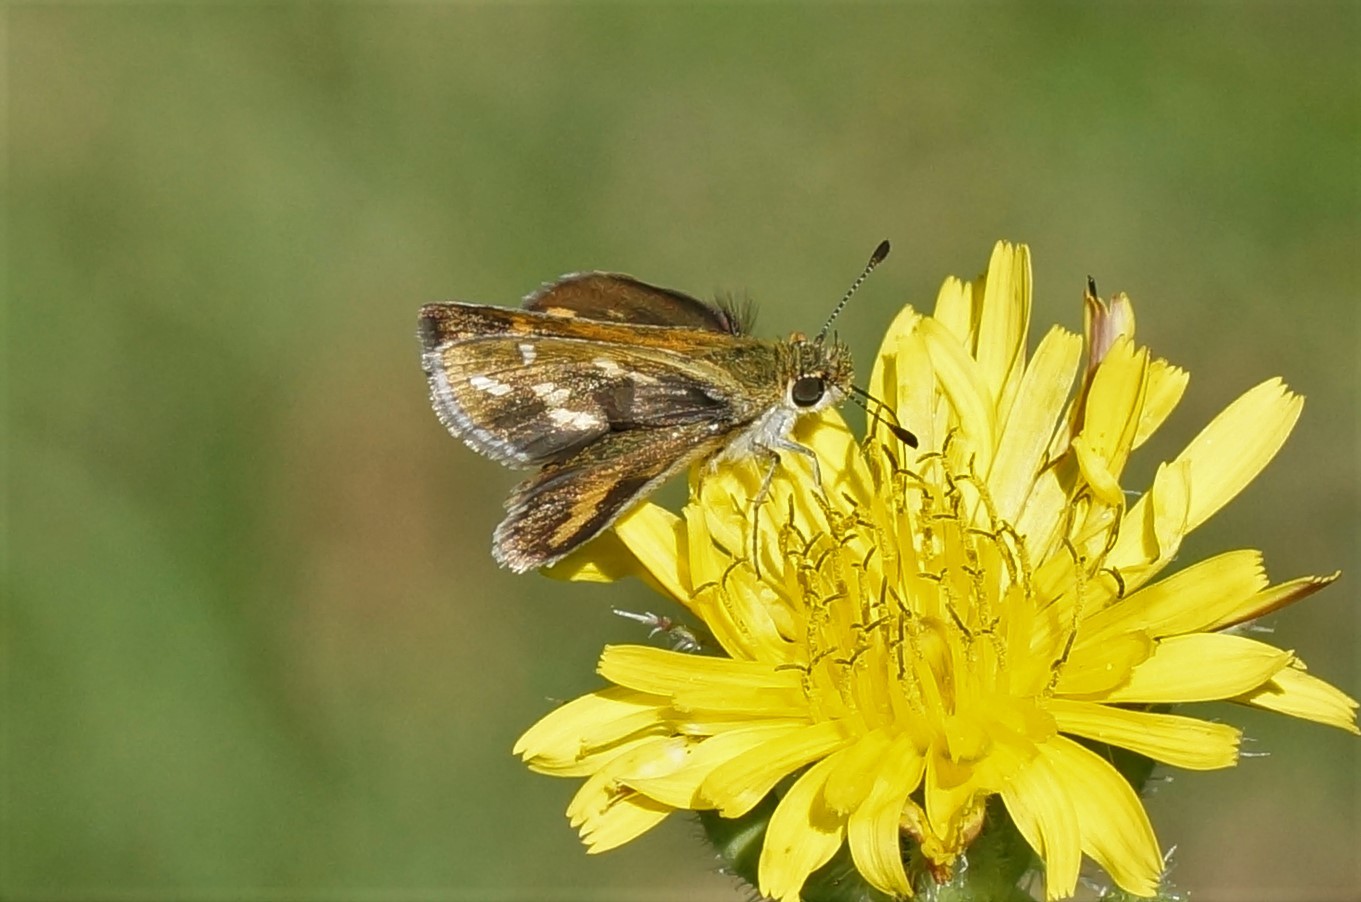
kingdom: Animalia
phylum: Arthropoda
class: Insecta
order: Lepidoptera
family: Hesperiidae
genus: Taractrocera
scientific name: Taractrocera papyria
